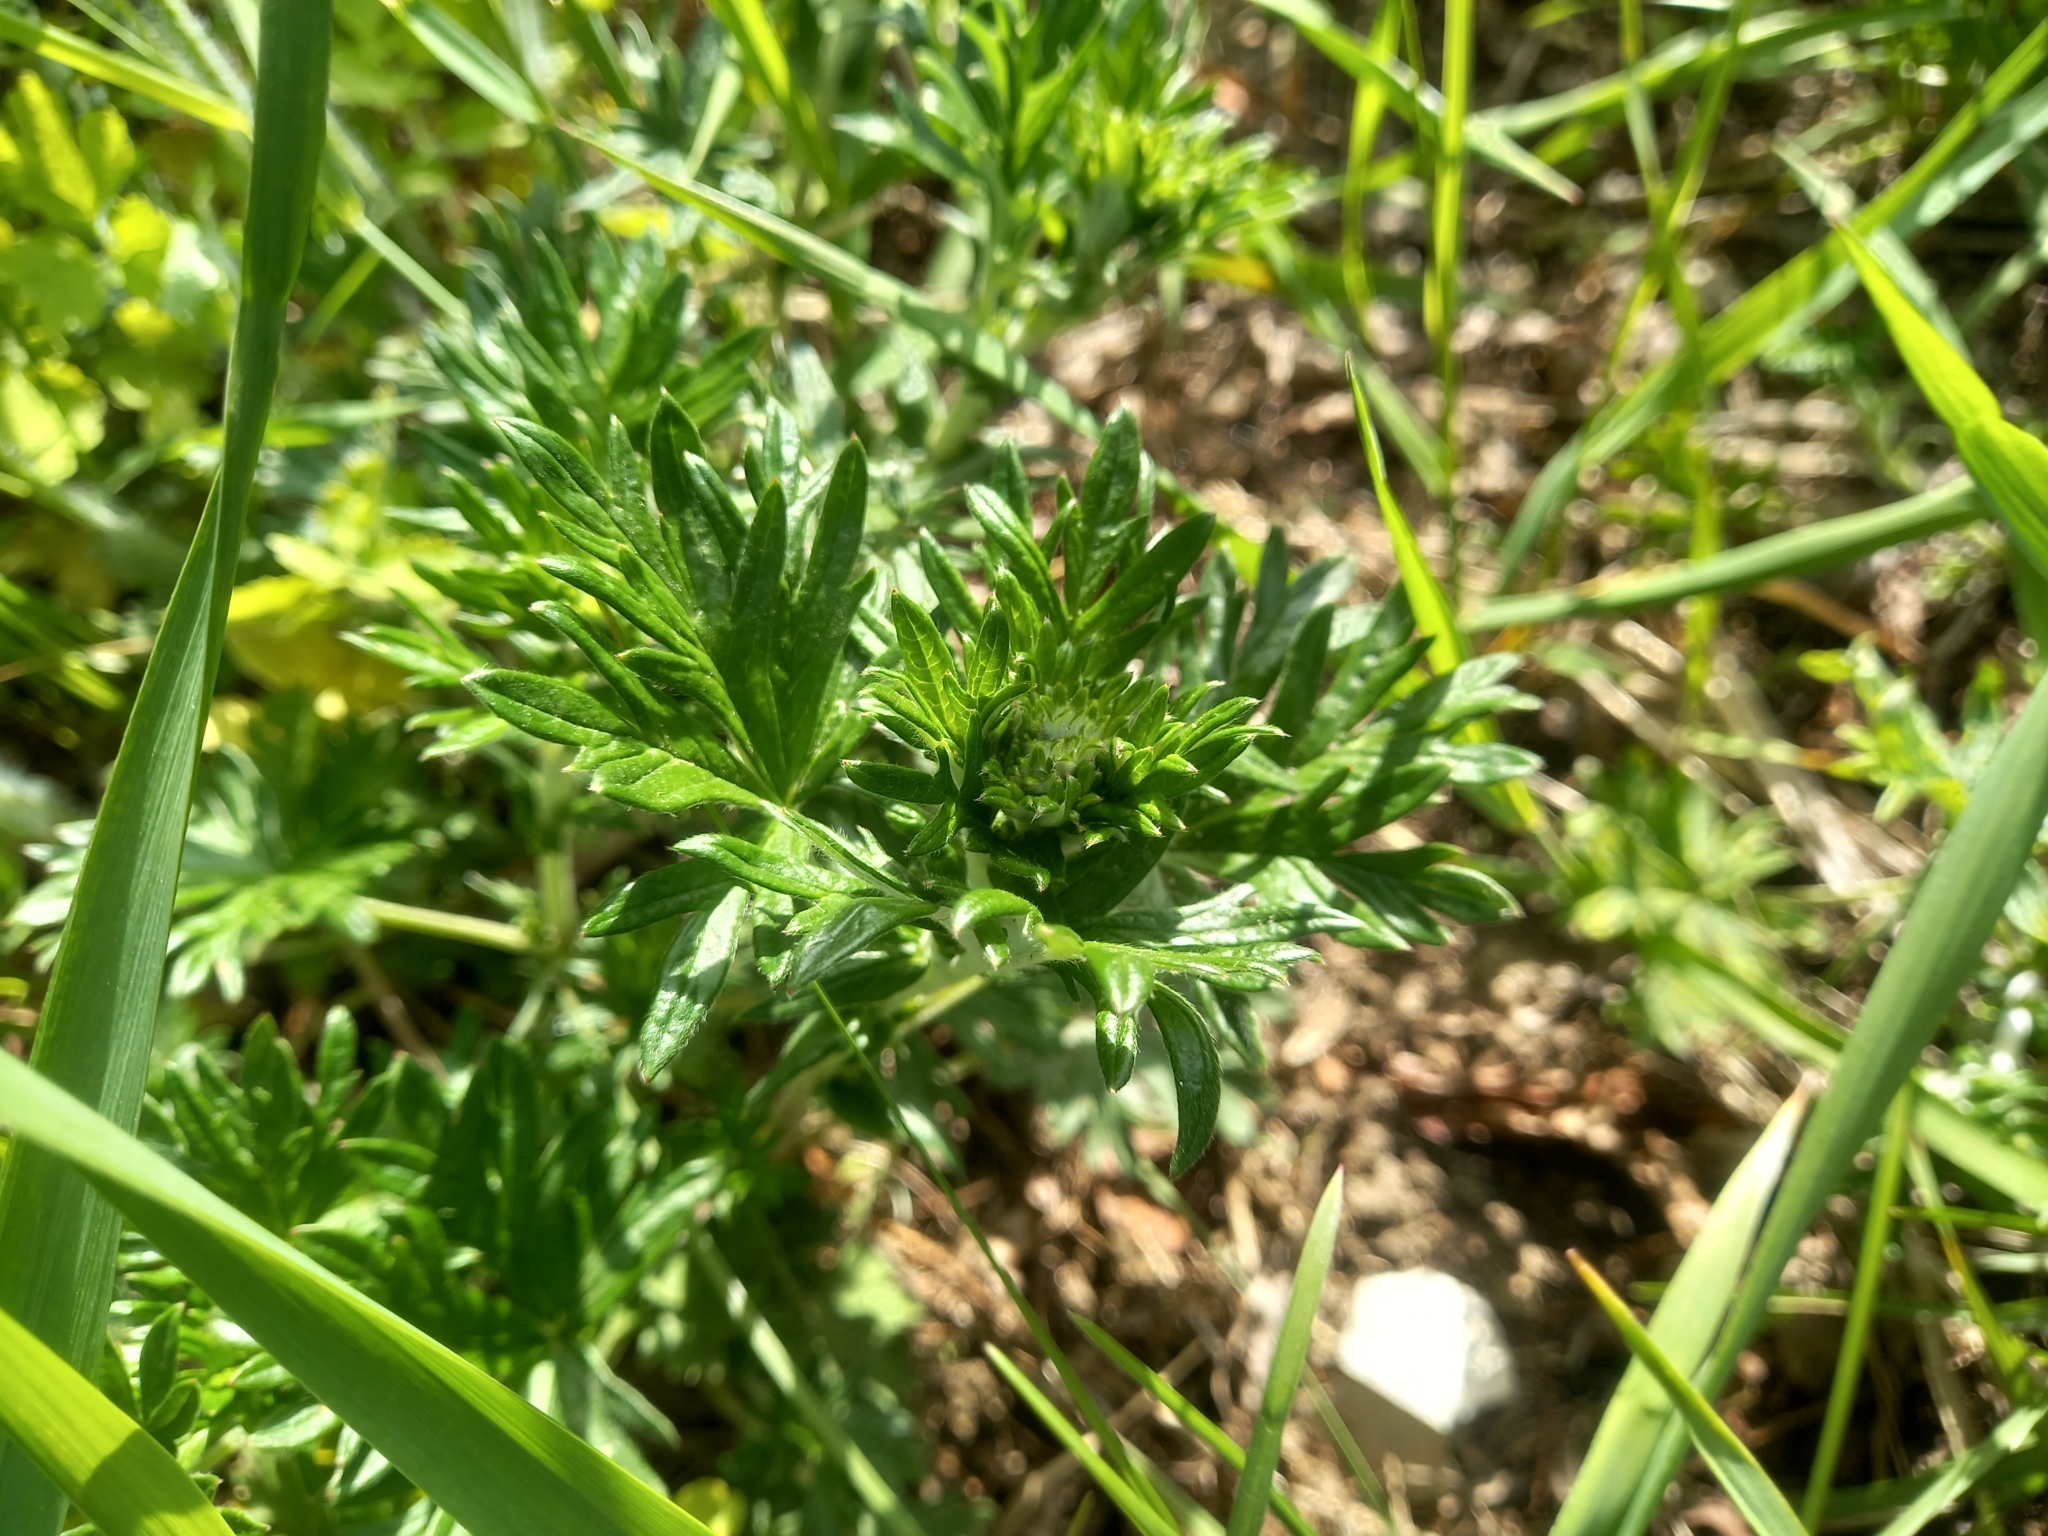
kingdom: Plantae
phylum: Tracheophyta
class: Magnoliopsida
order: Rosales
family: Rosaceae
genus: Potentilla
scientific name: Potentilla argentea
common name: Hoary cinquefoil
